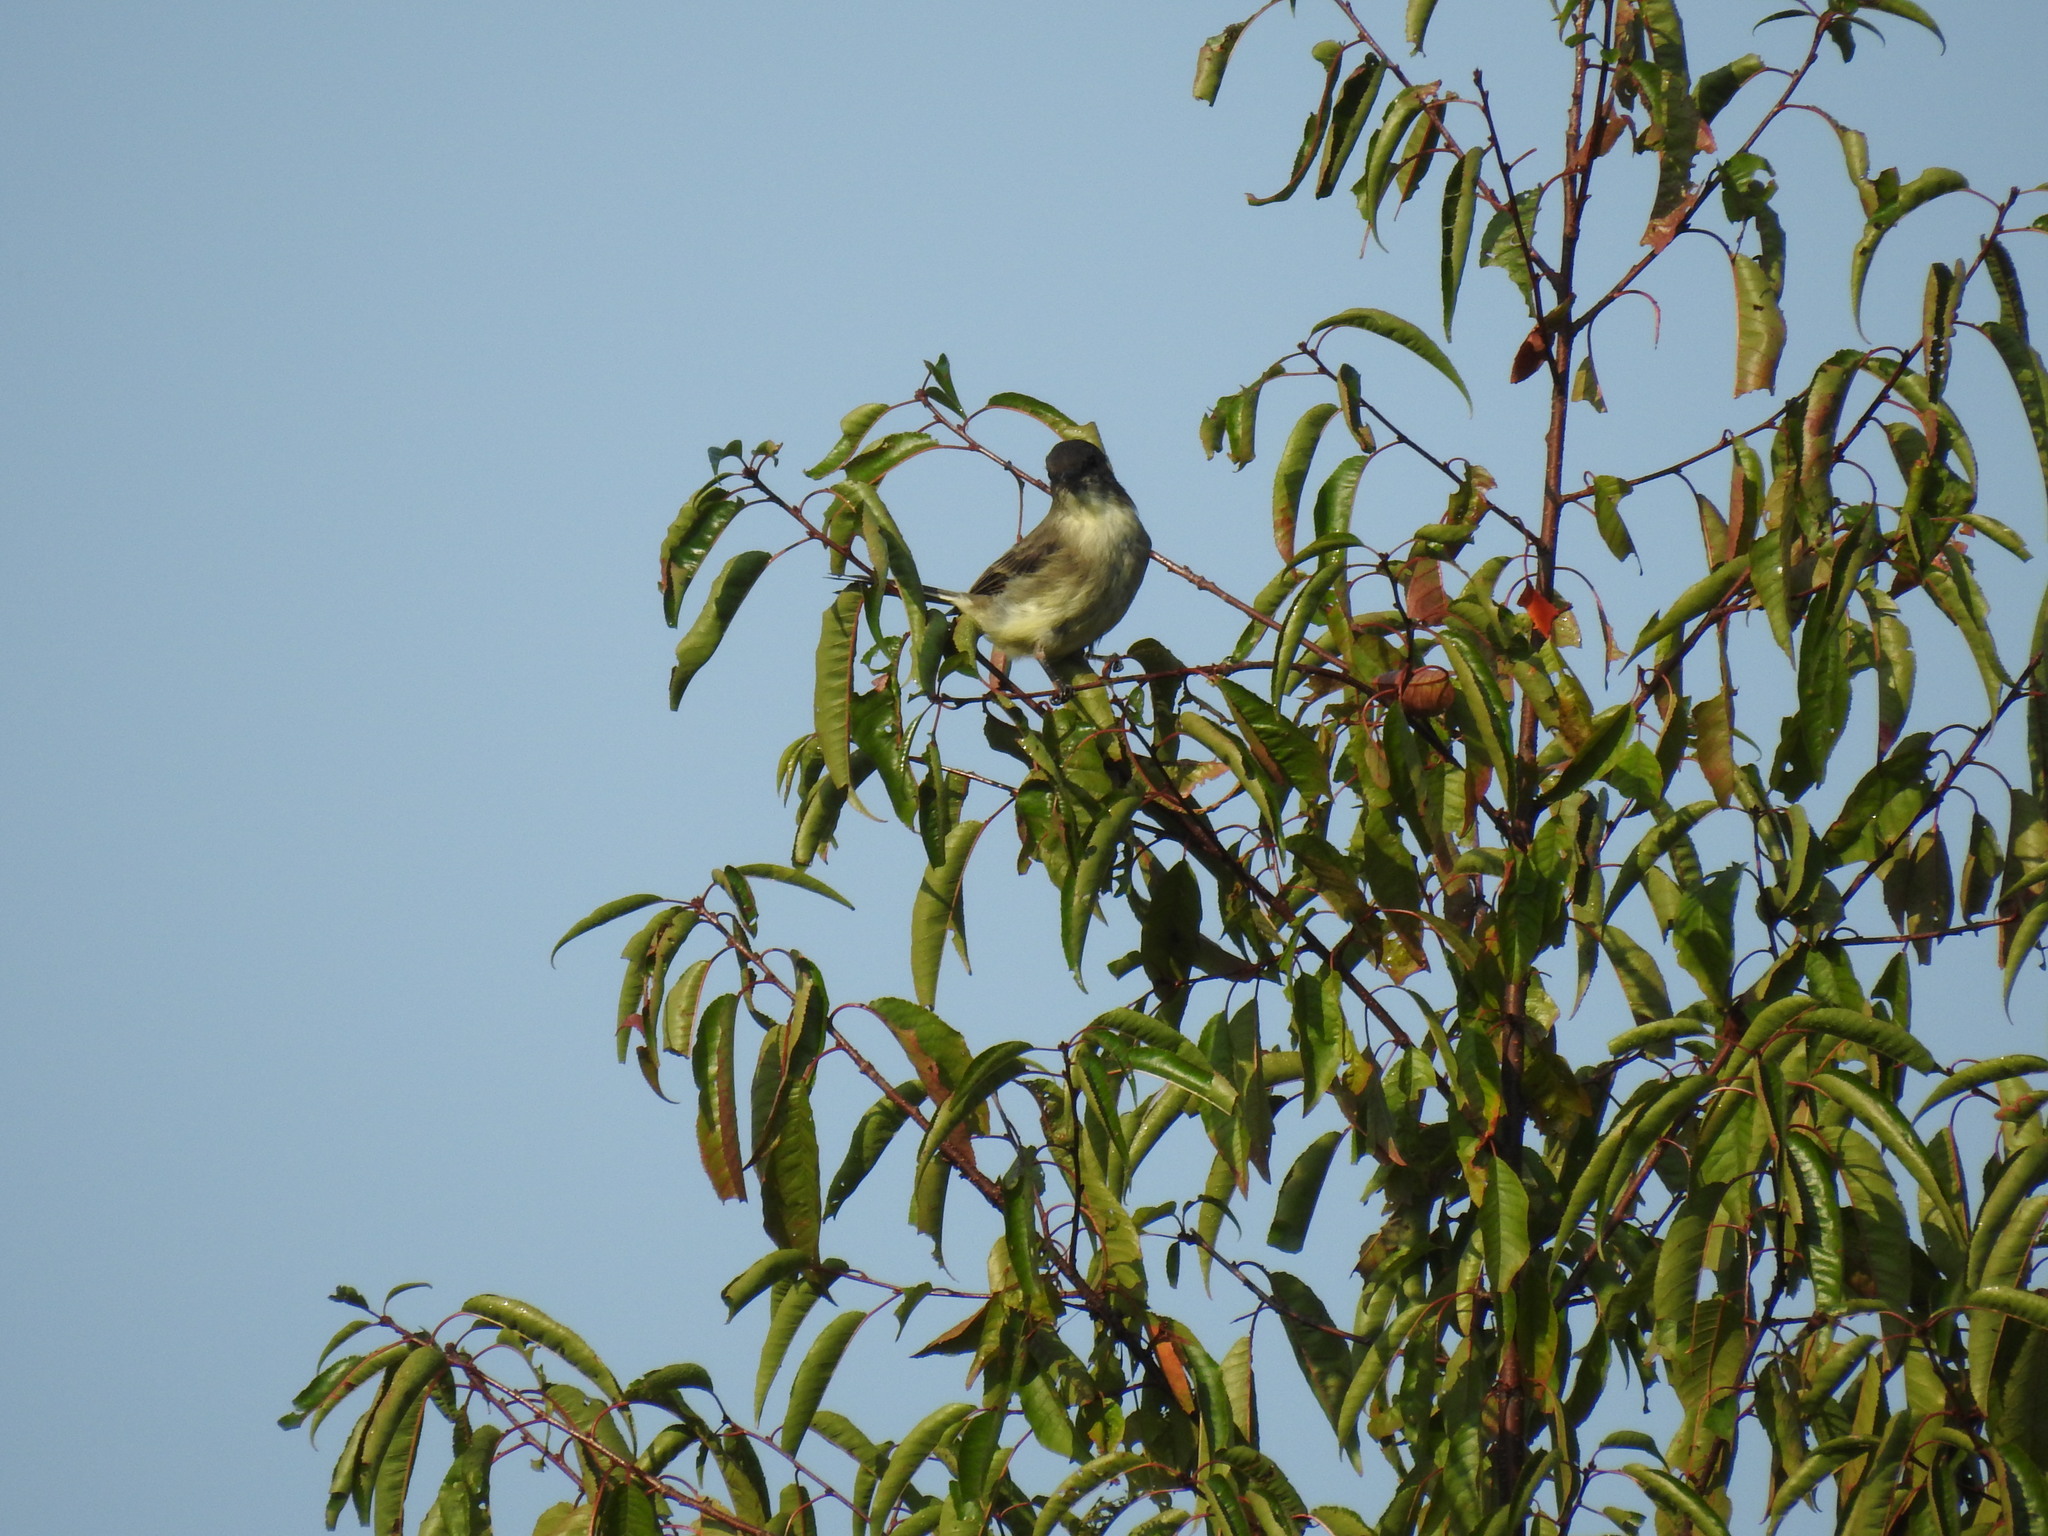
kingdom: Animalia
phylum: Chordata
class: Aves
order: Passeriformes
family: Tyrannidae
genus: Sayornis
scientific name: Sayornis phoebe
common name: Eastern phoebe
